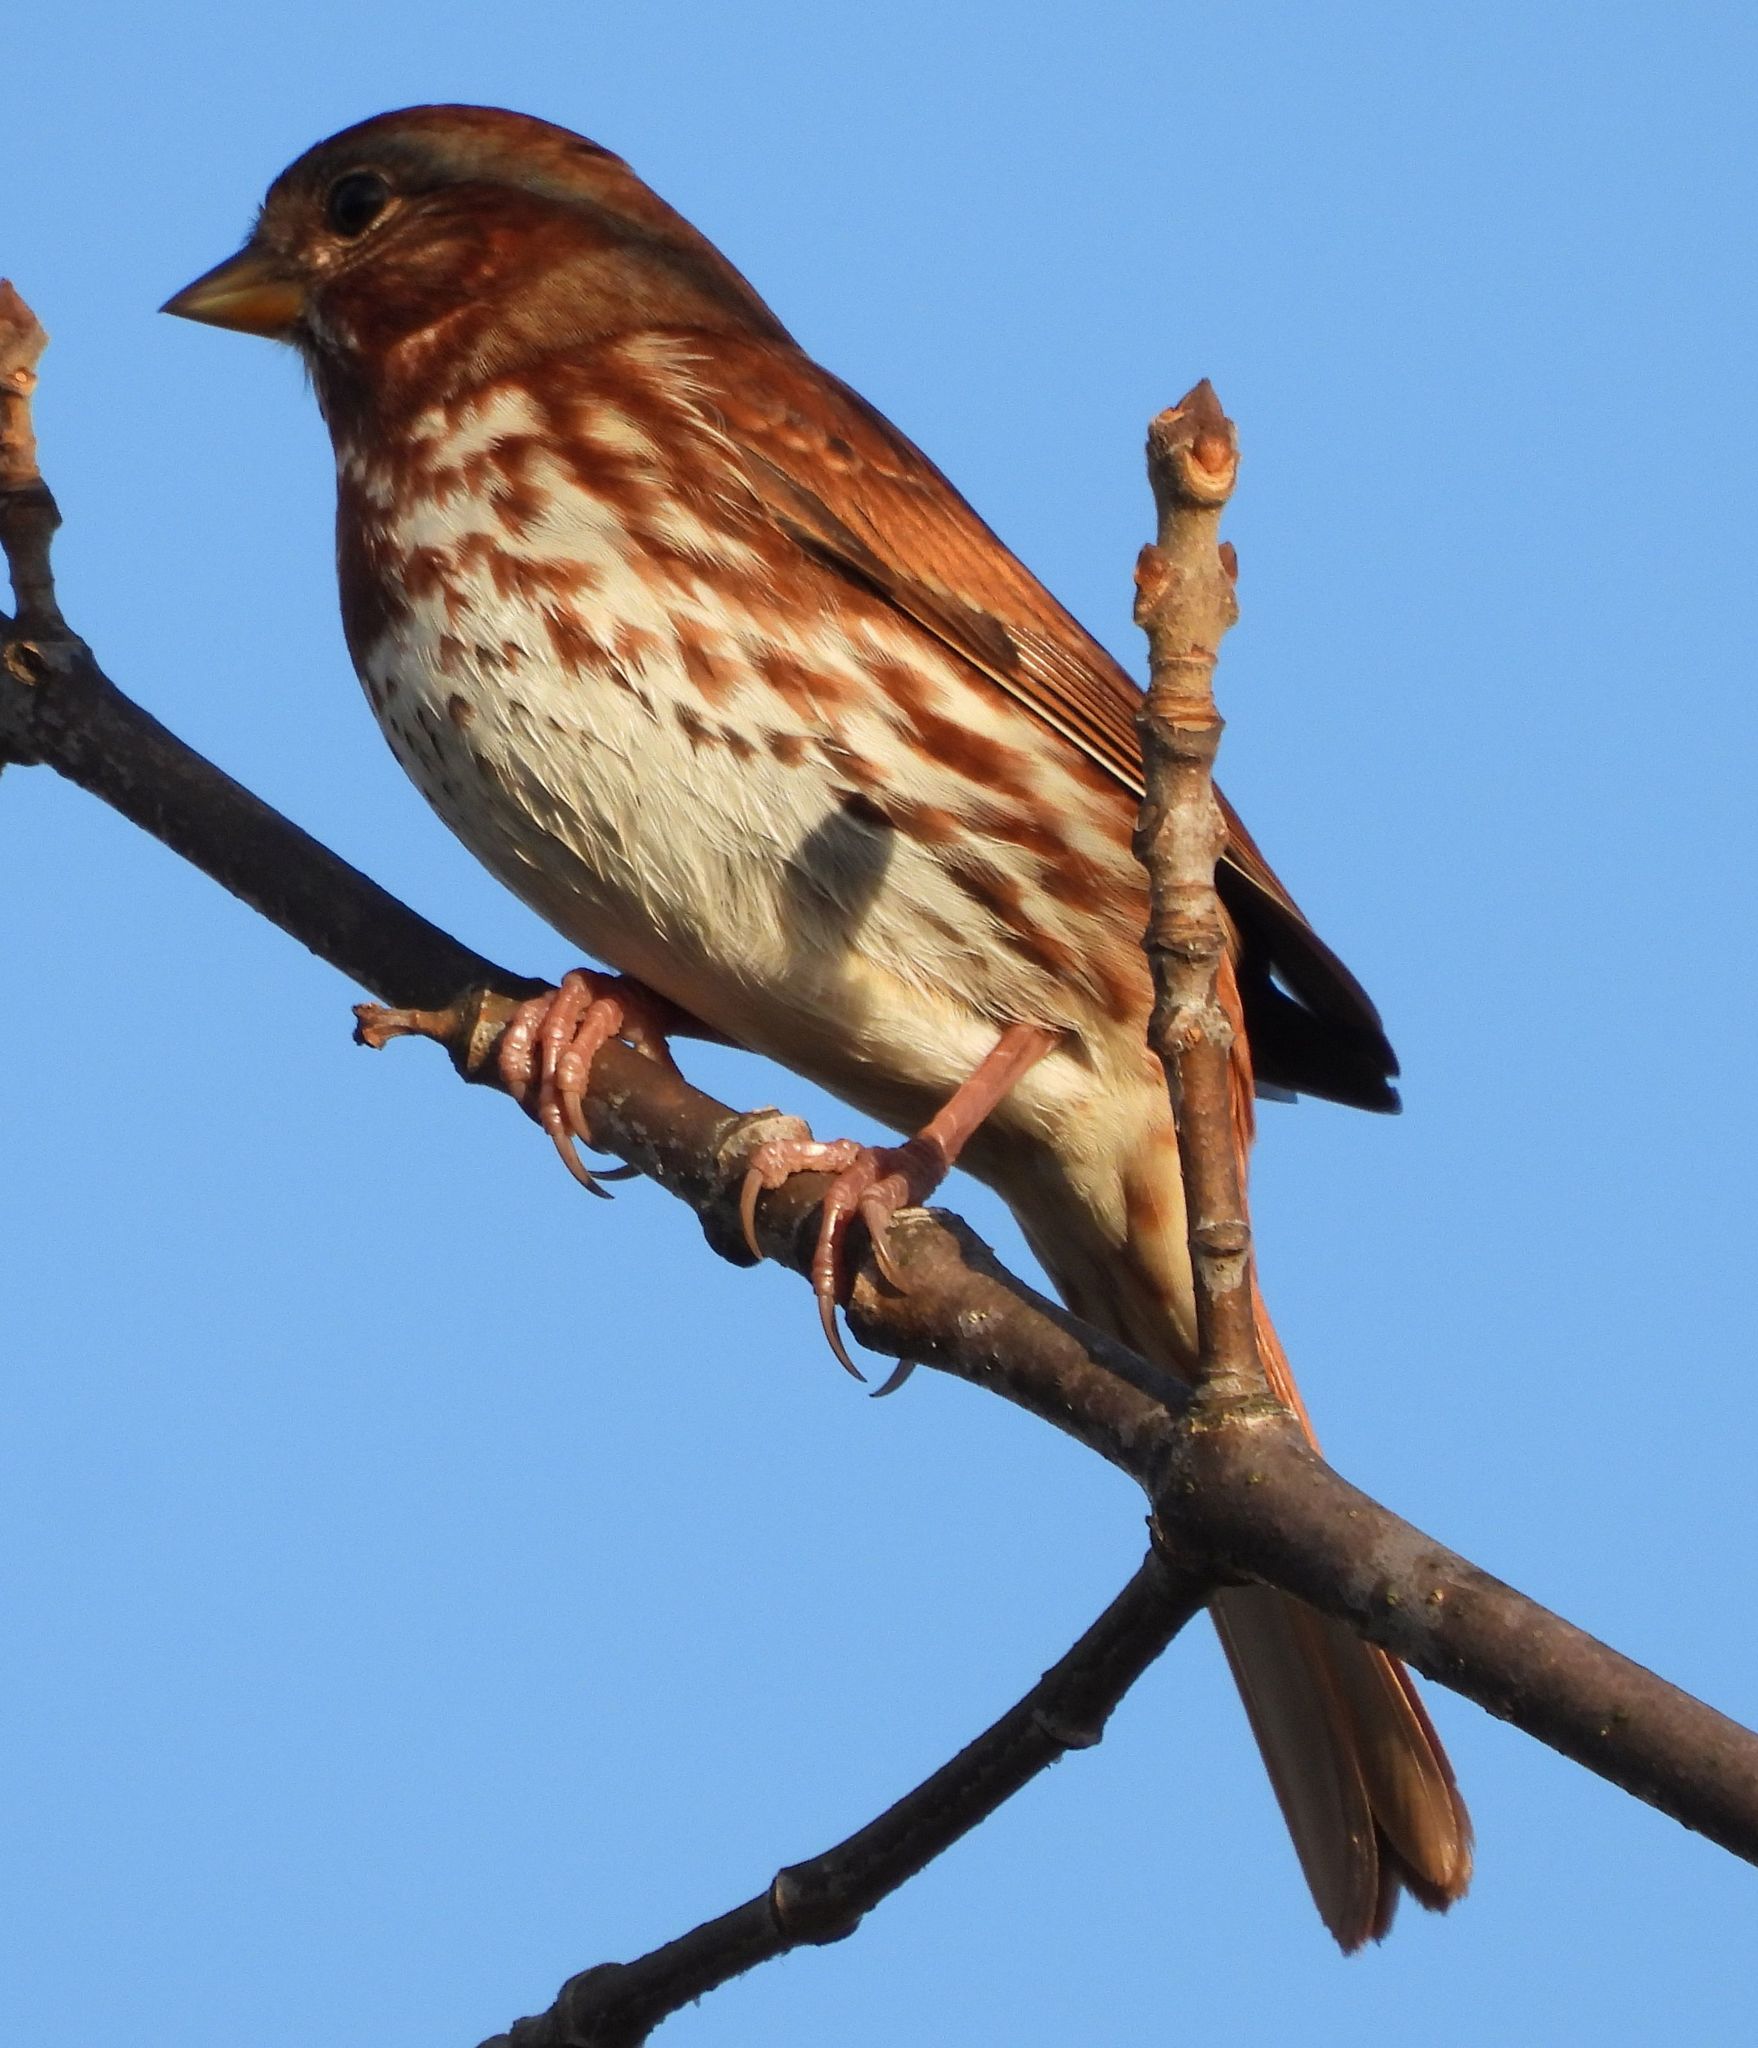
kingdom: Animalia
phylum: Chordata
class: Aves
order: Passeriformes
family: Passerellidae
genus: Passerella
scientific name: Passerella iliaca
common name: Fox sparrow
